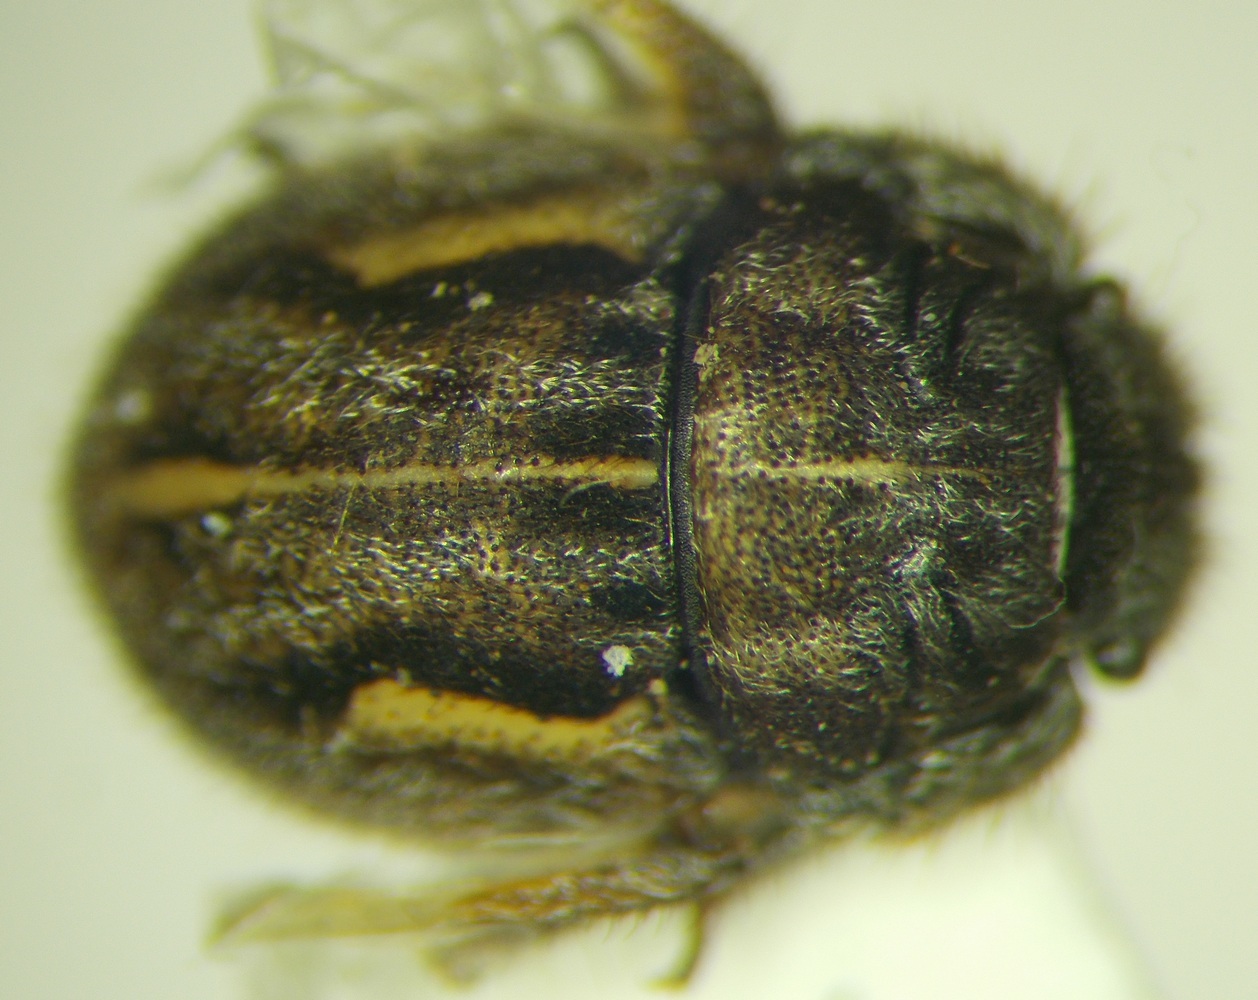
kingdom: Animalia
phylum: Arthropoda
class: Insecta
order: Hemiptera
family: Scutelleridae
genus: Odontoscelis
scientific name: Odontoscelis signata
